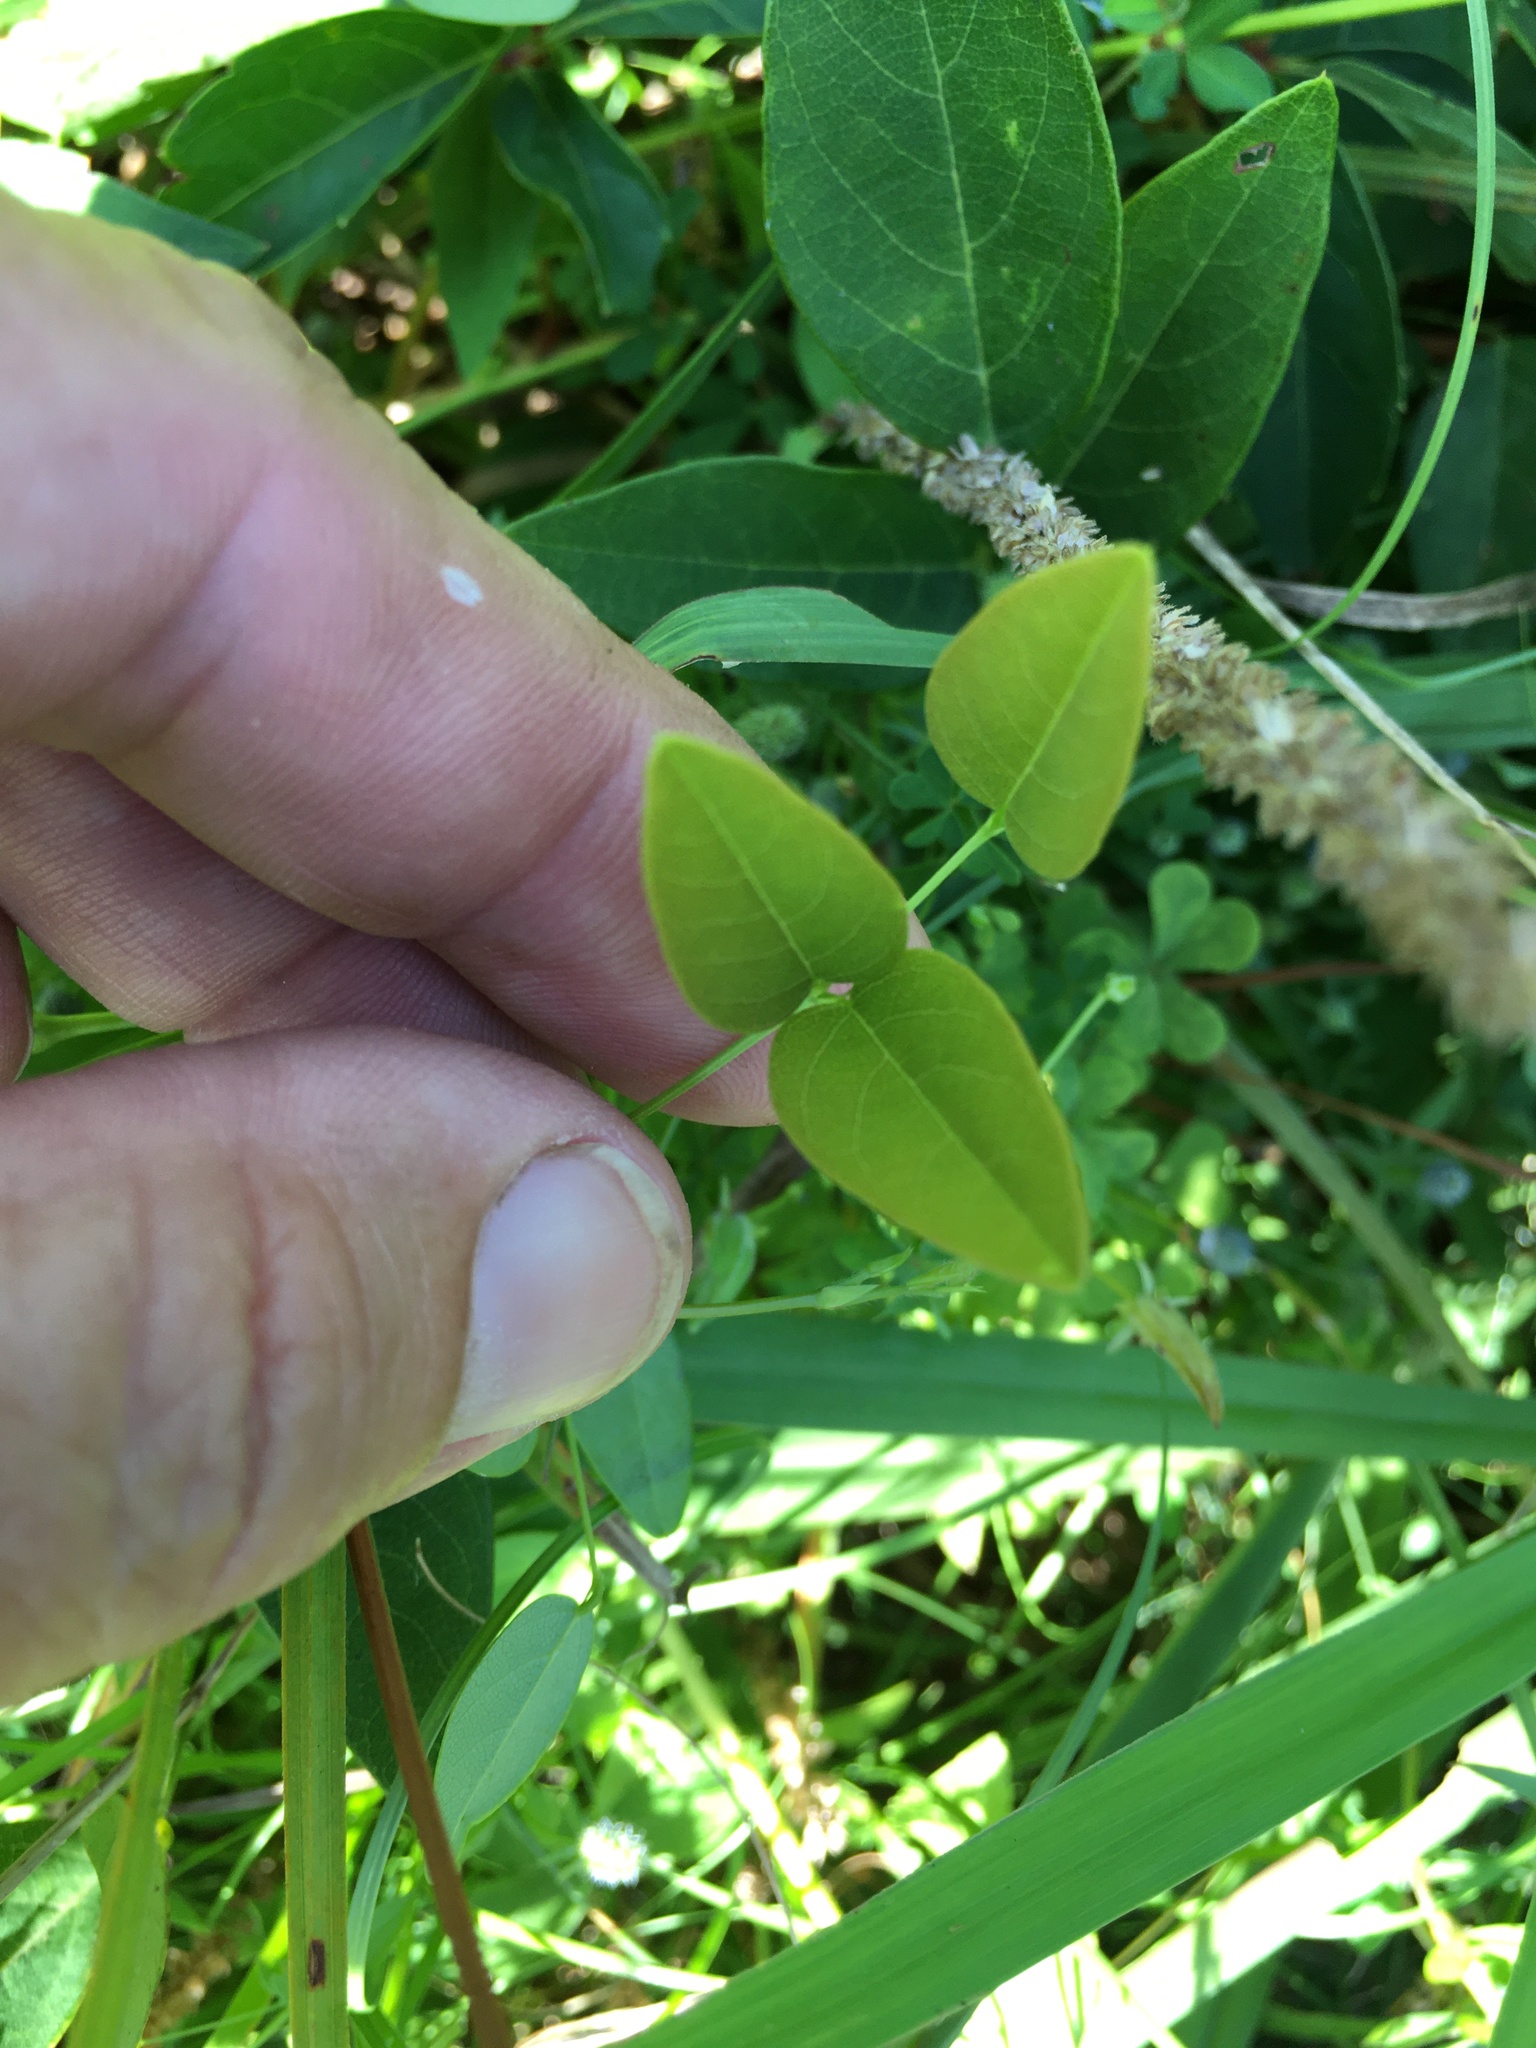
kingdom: Plantae
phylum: Tracheophyta
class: Magnoliopsida
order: Fabales
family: Fabaceae
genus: Clitoria
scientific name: Clitoria mariana
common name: Butterfly-pea
